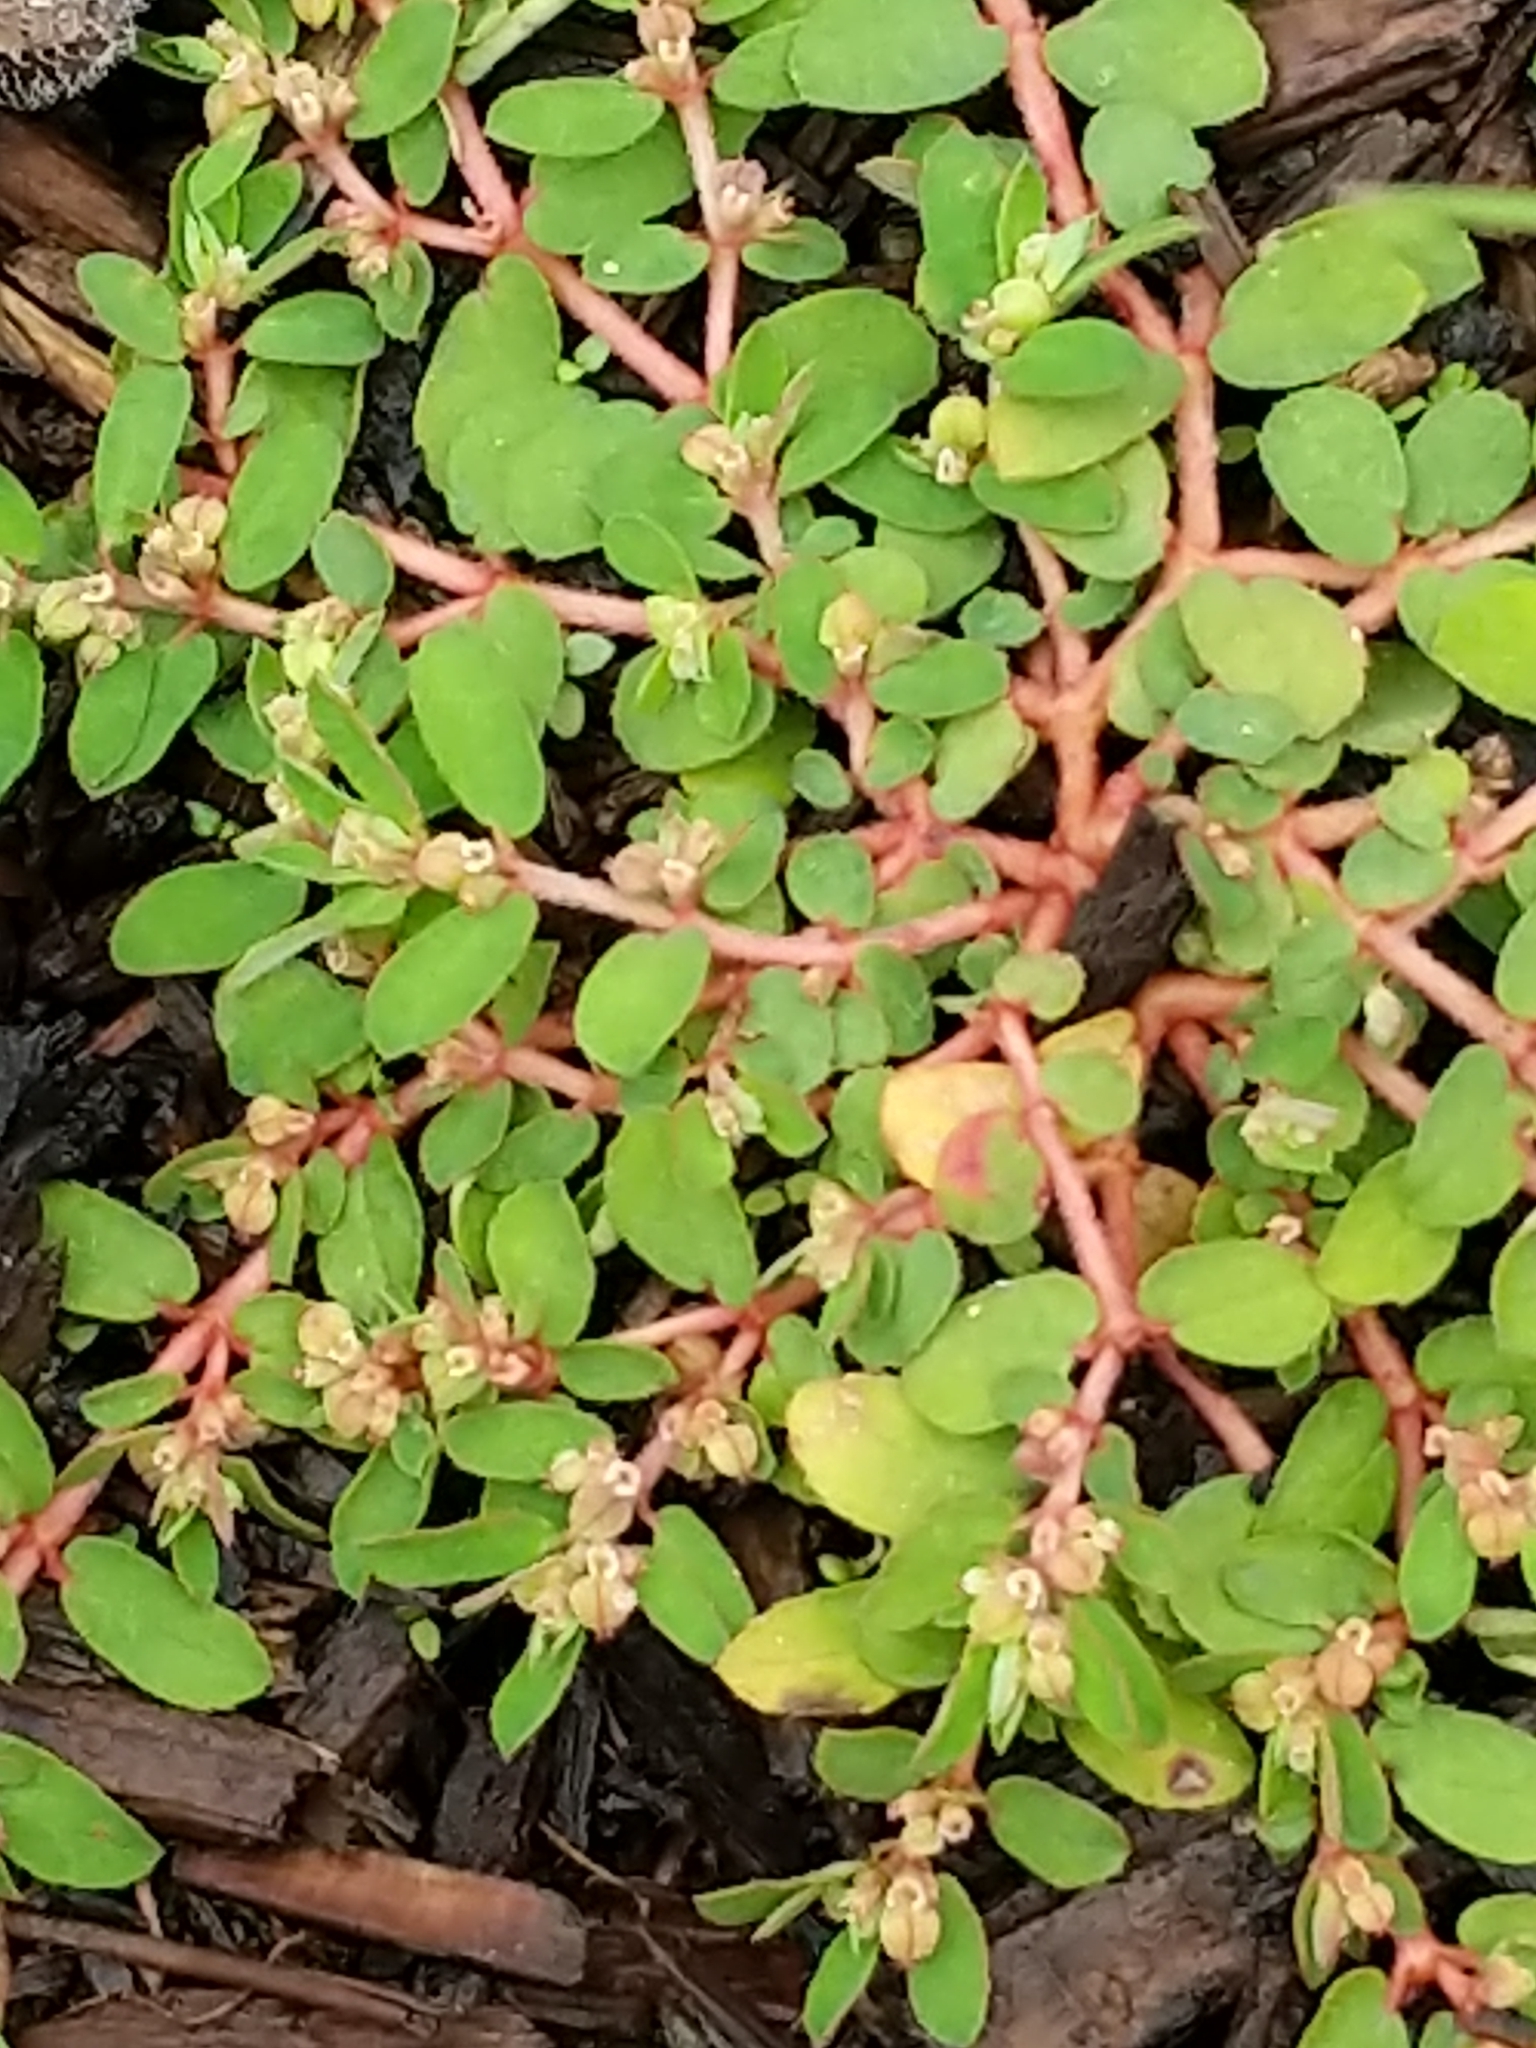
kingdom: Plantae
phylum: Tracheophyta
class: Magnoliopsida
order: Malpighiales
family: Euphorbiaceae
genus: Euphorbia
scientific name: Euphorbia maculata
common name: Spotted spurge
